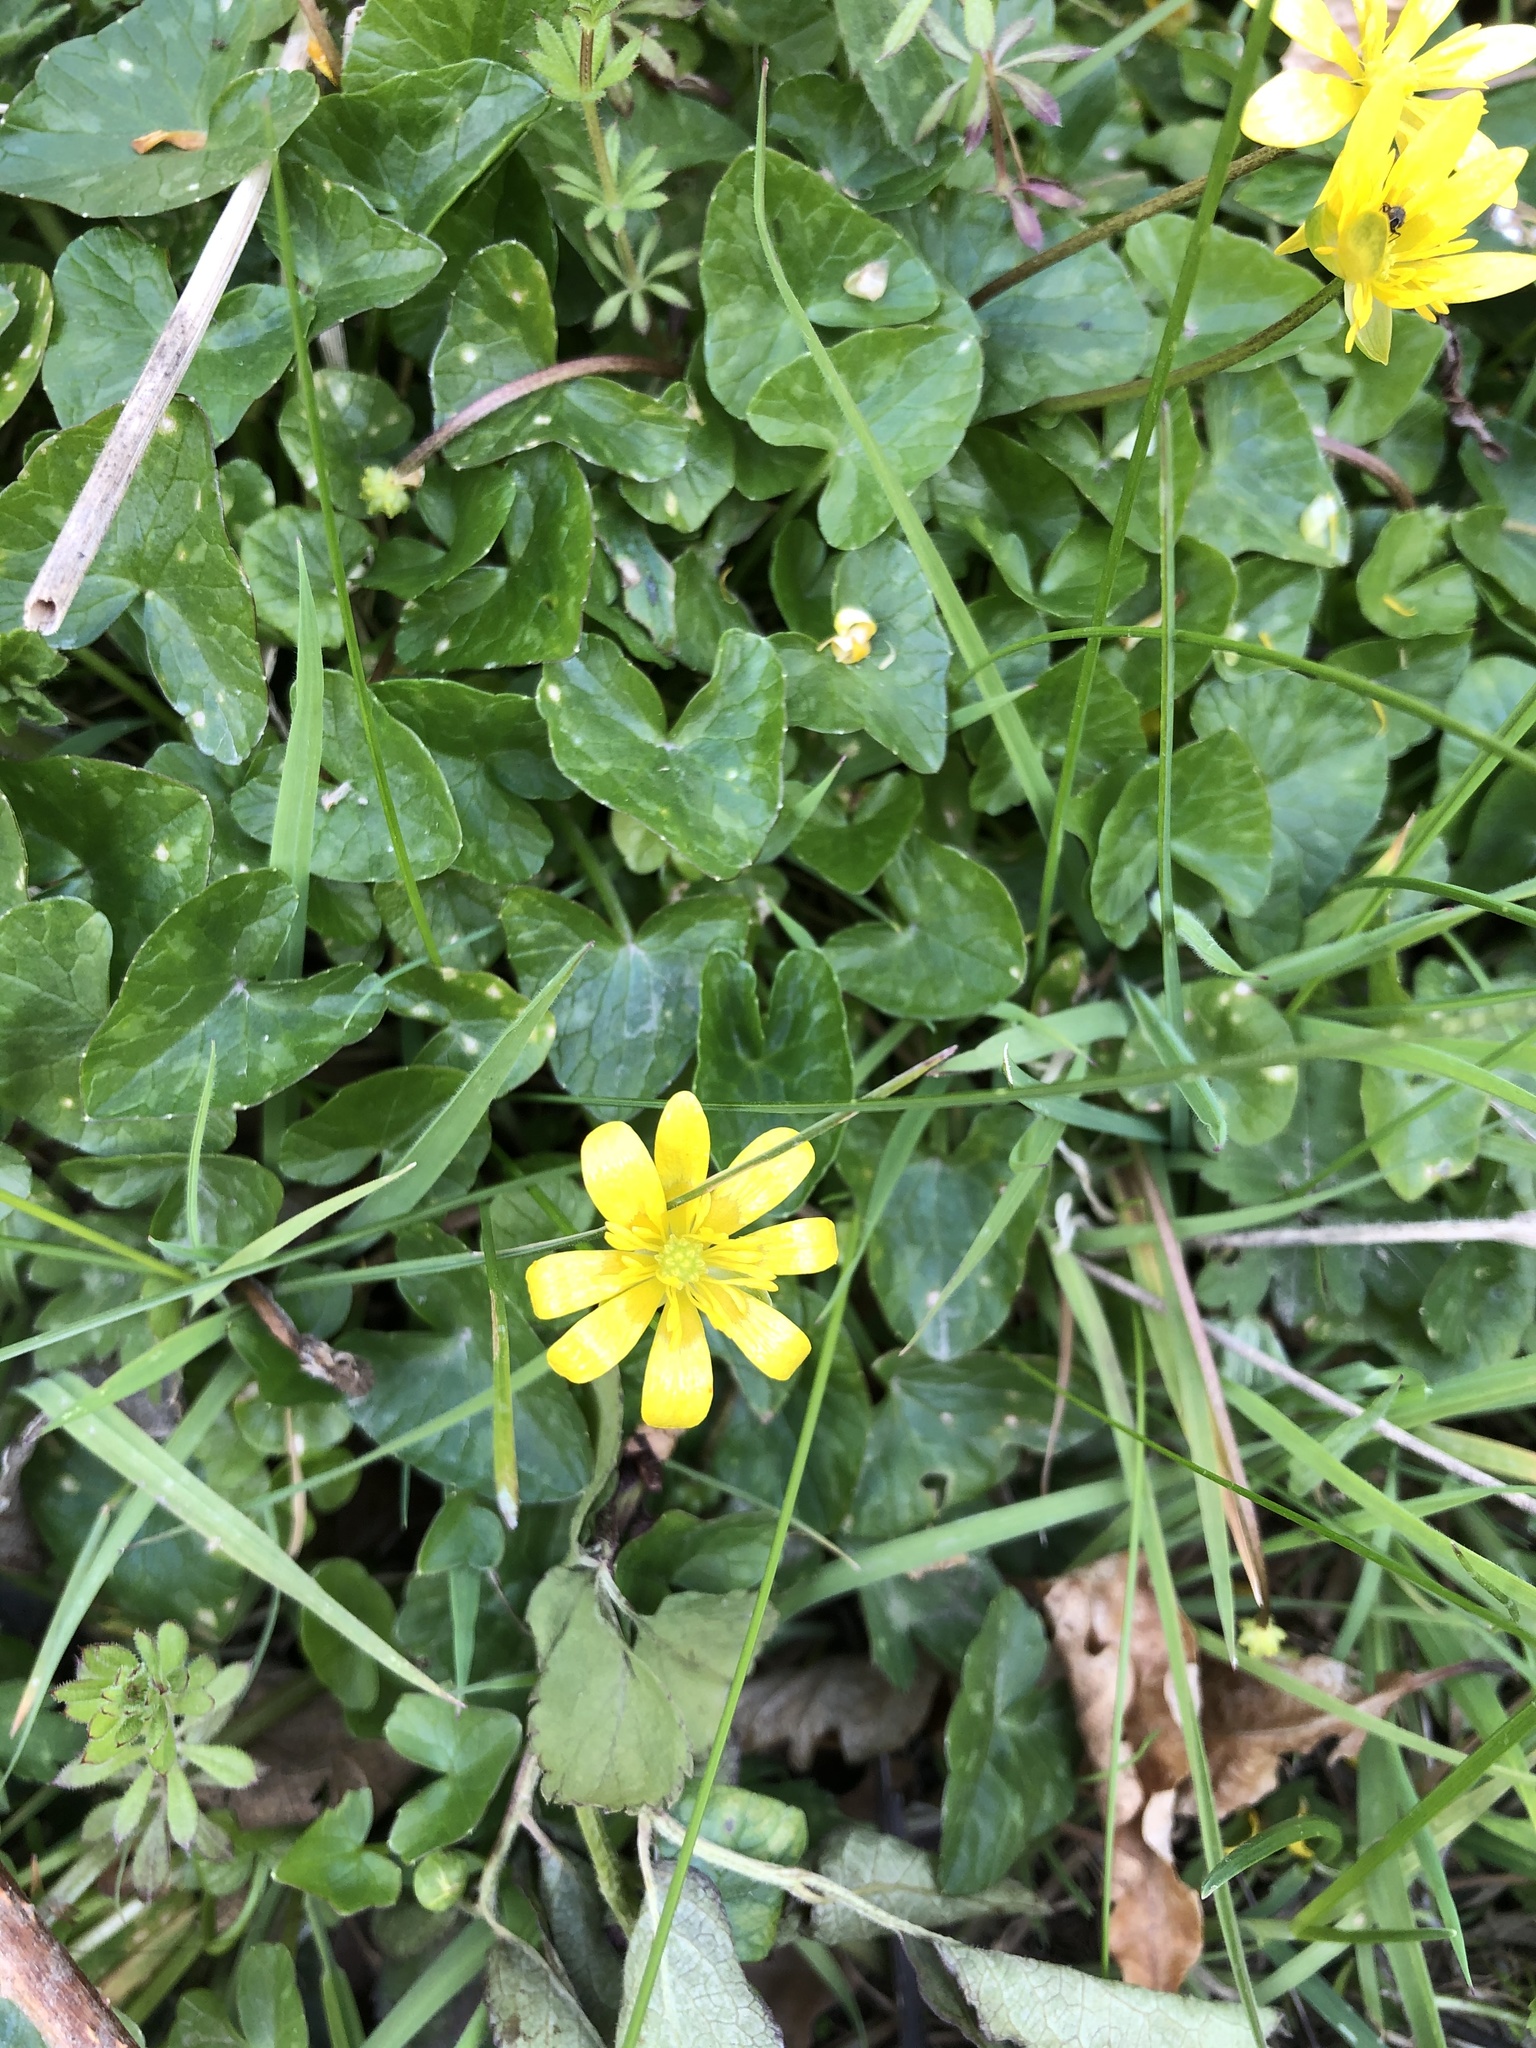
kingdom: Plantae
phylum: Tracheophyta
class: Magnoliopsida
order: Ranunculales
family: Ranunculaceae
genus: Ficaria
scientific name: Ficaria verna
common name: Lesser celandine
